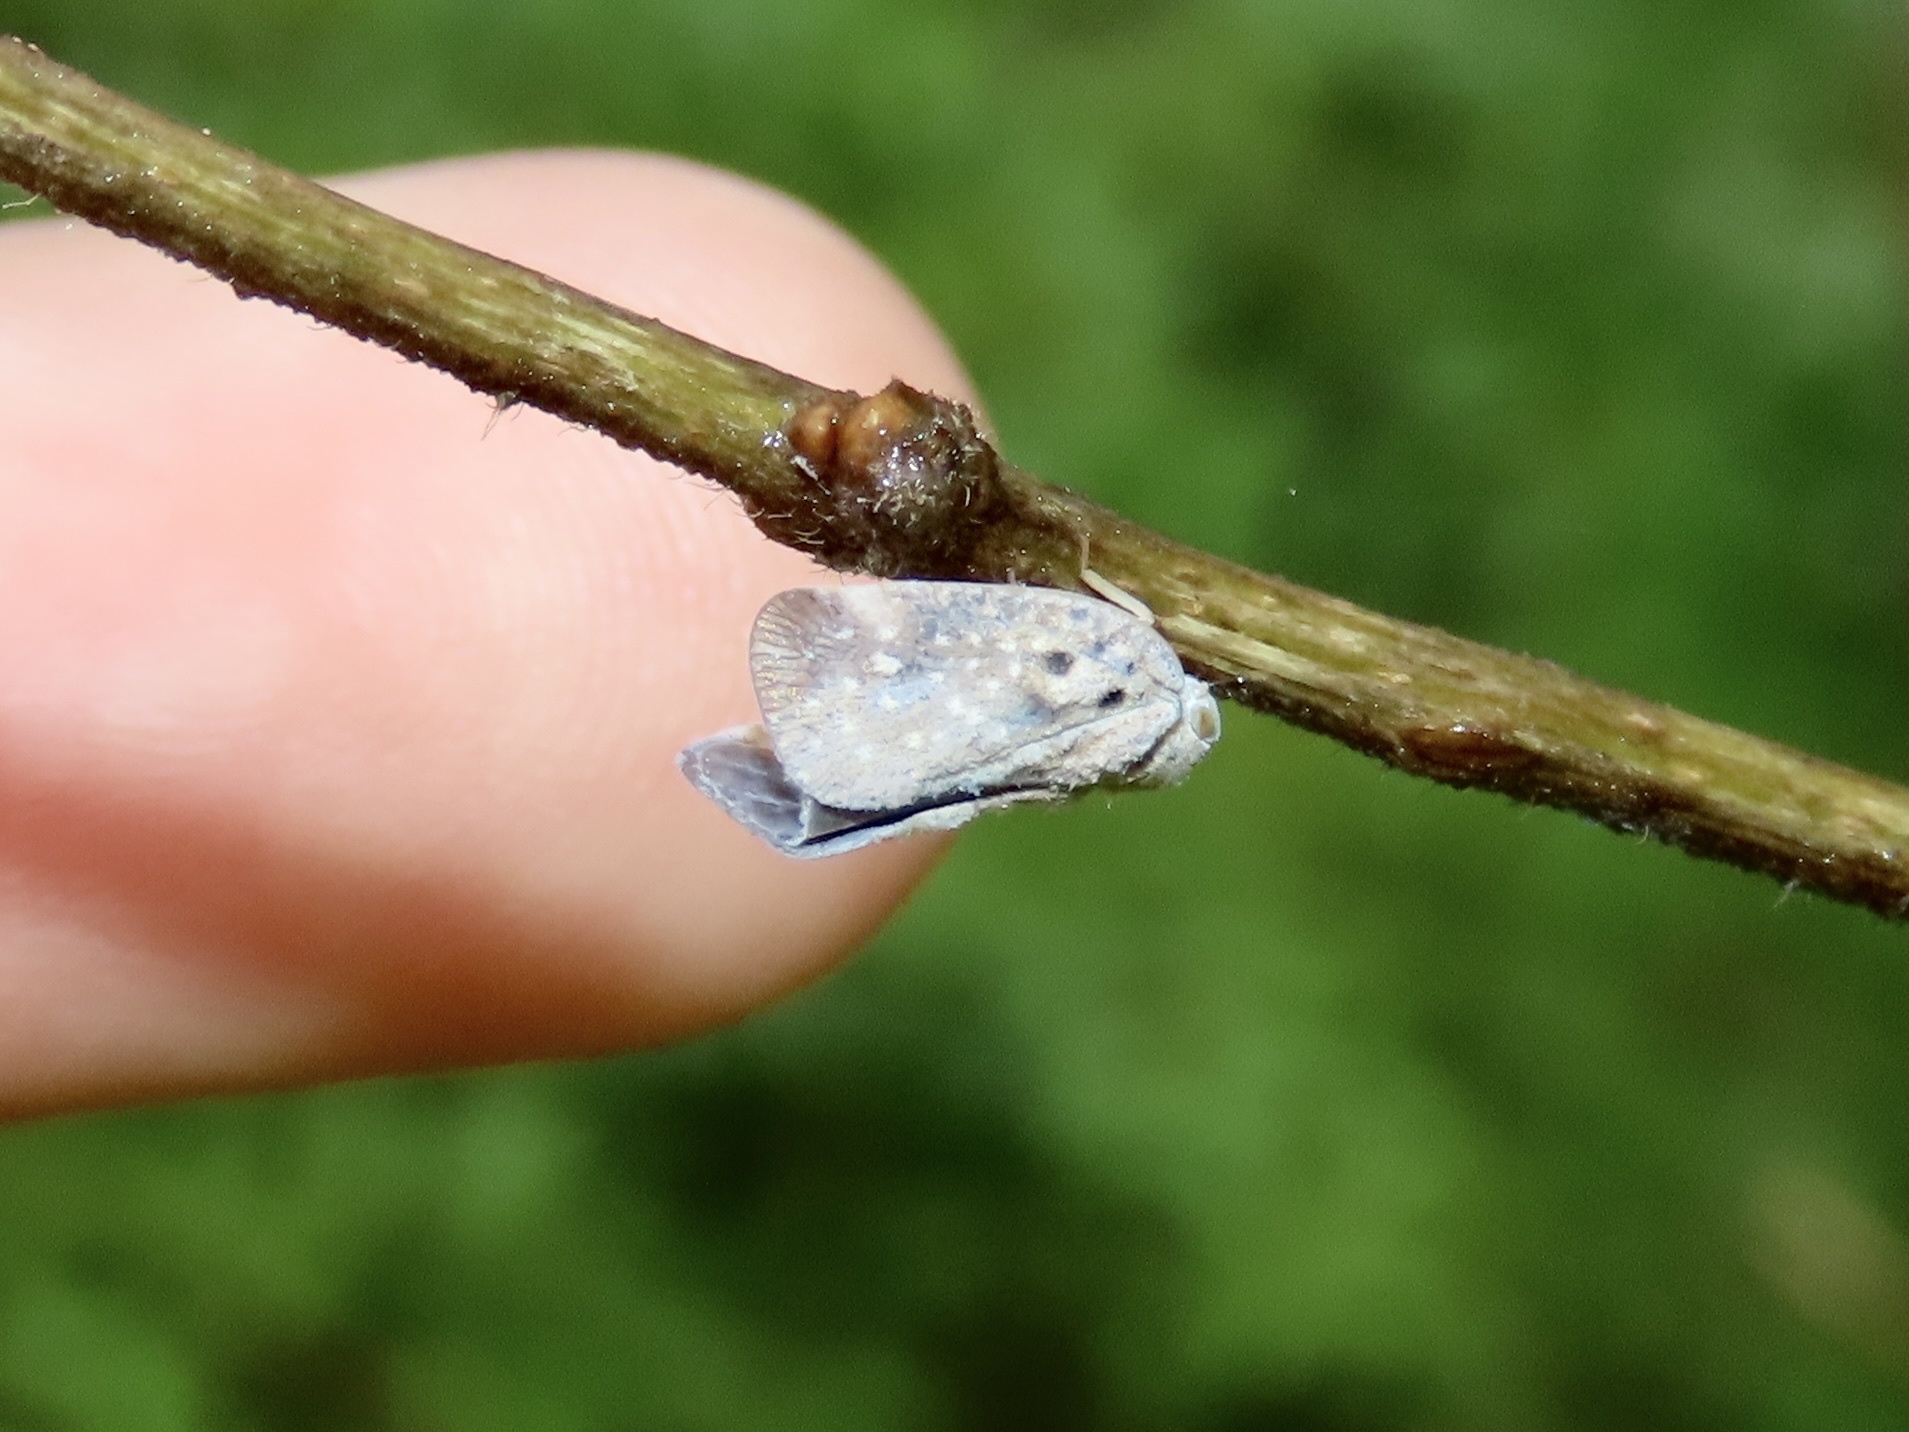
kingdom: Animalia
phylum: Arthropoda
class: Insecta
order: Hemiptera
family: Flatidae
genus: Metcalfa
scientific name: Metcalfa pruinosa
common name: Citrus flatid planthopper
